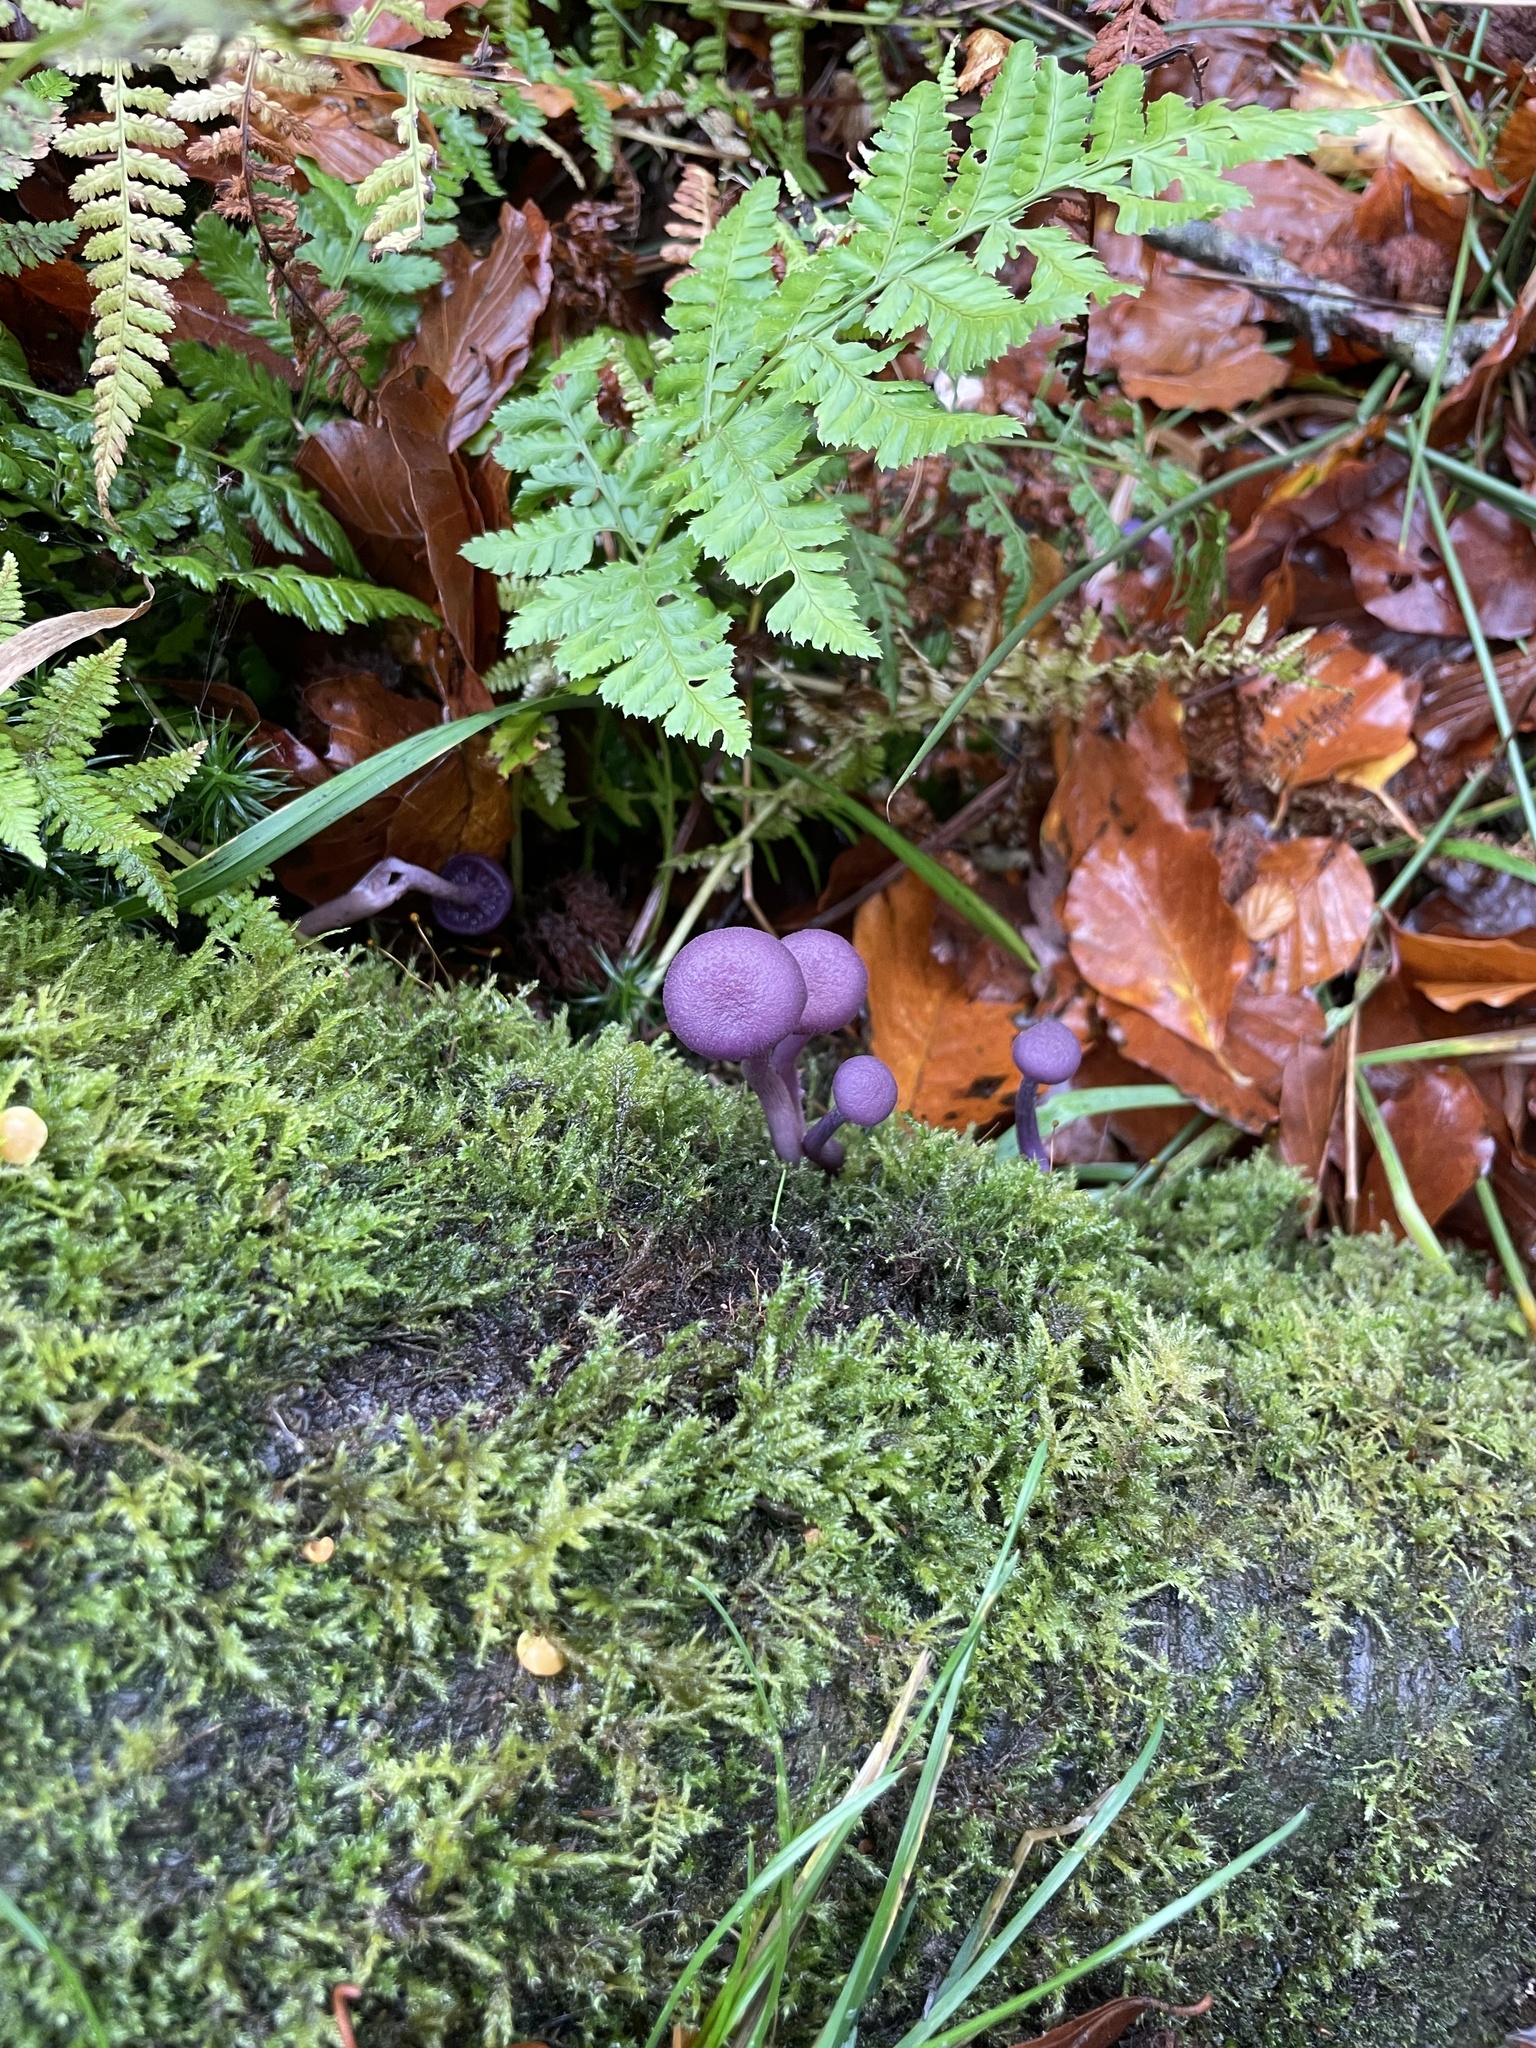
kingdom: Fungi
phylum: Basidiomycota
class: Agaricomycetes
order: Agaricales
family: Hydnangiaceae
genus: Laccaria
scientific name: Laccaria amethystina
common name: Amethyst deceiver
